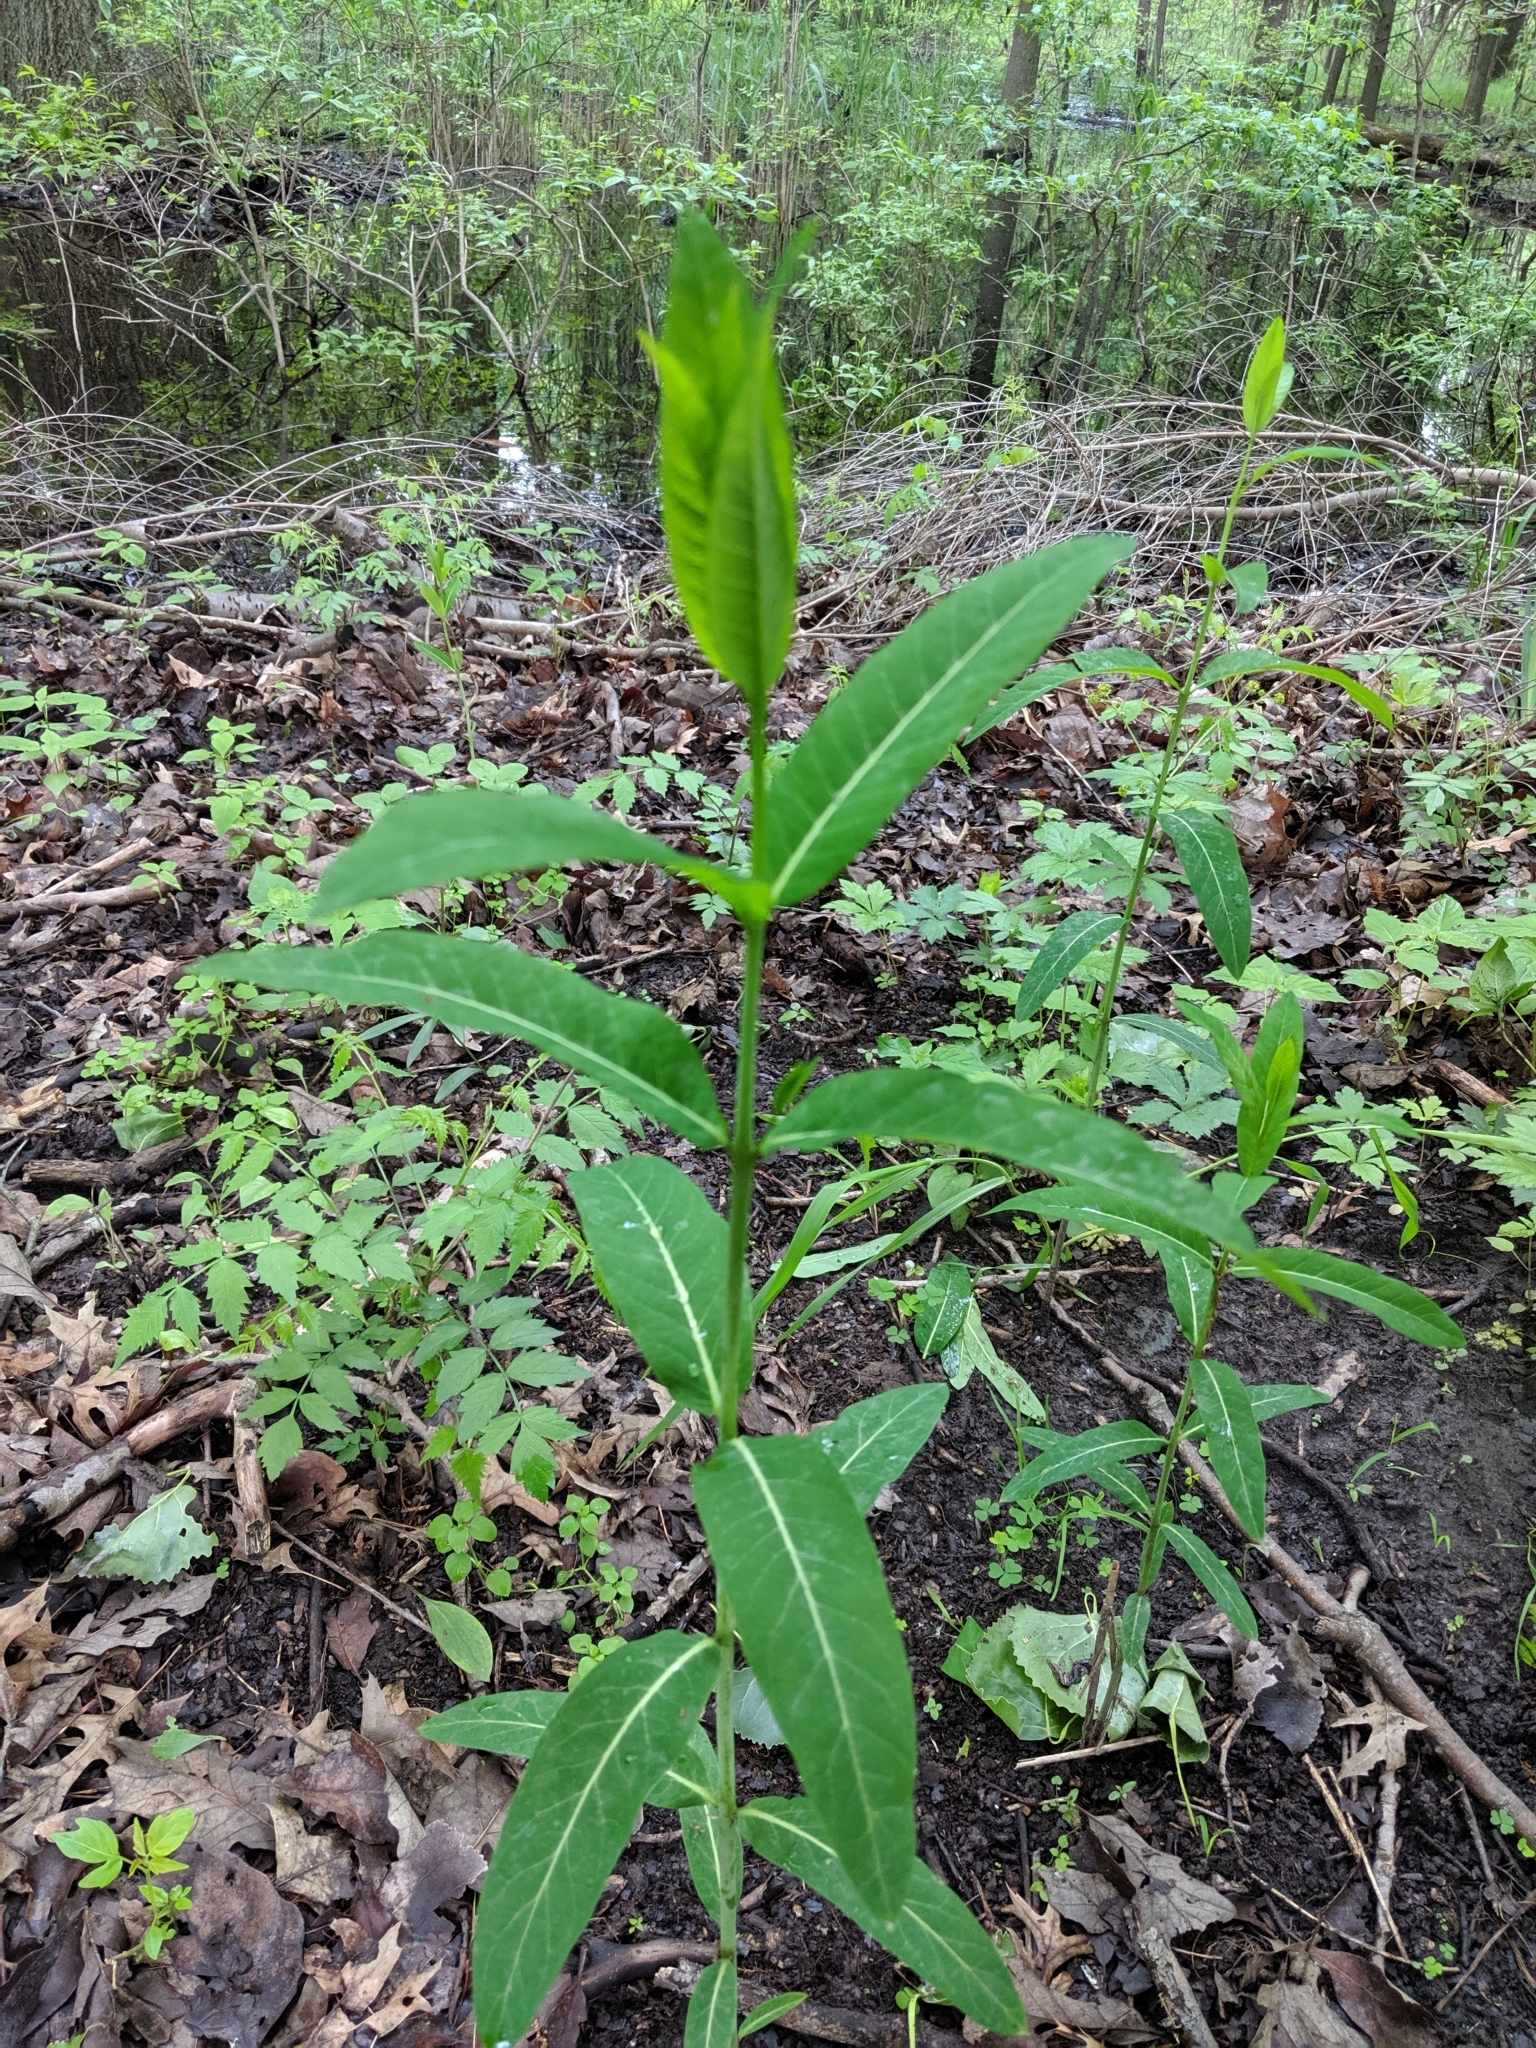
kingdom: Plantae
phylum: Tracheophyta
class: Magnoliopsida
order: Gentianales
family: Apocynaceae
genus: Apocynum
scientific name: Apocynum cannabinum
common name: Hemp dogbane
